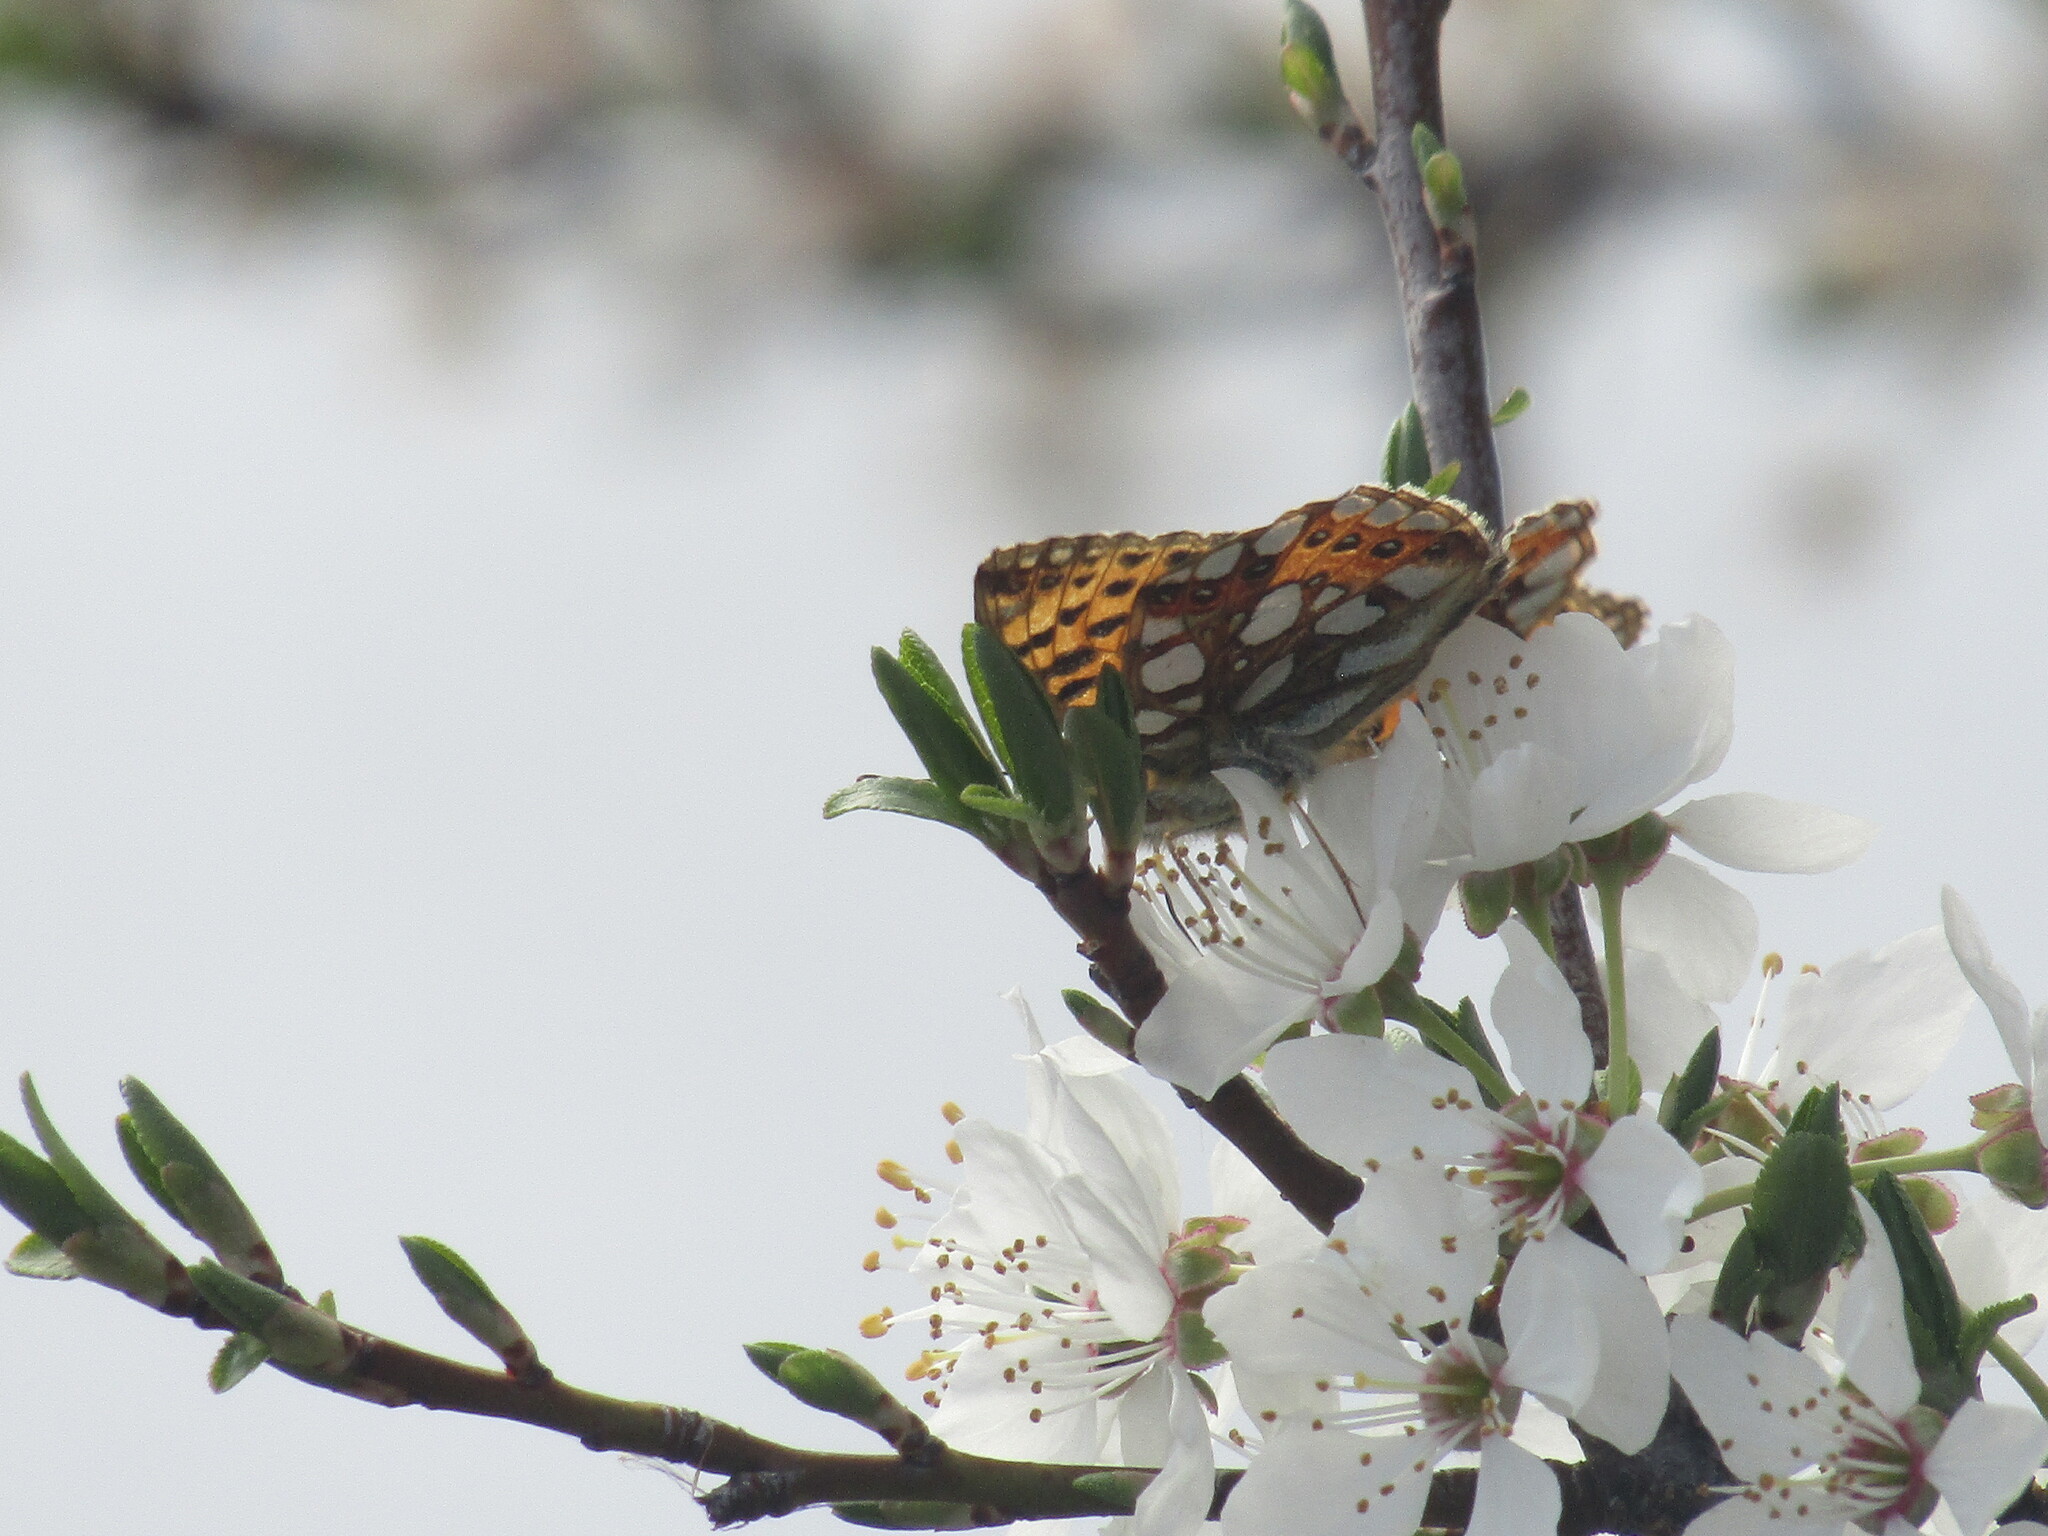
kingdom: Animalia
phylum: Arthropoda
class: Insecta
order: Lepidoptera
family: Nymphalidae
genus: Issoria
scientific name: Issoria lathonia
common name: Queen of spain fritillary
